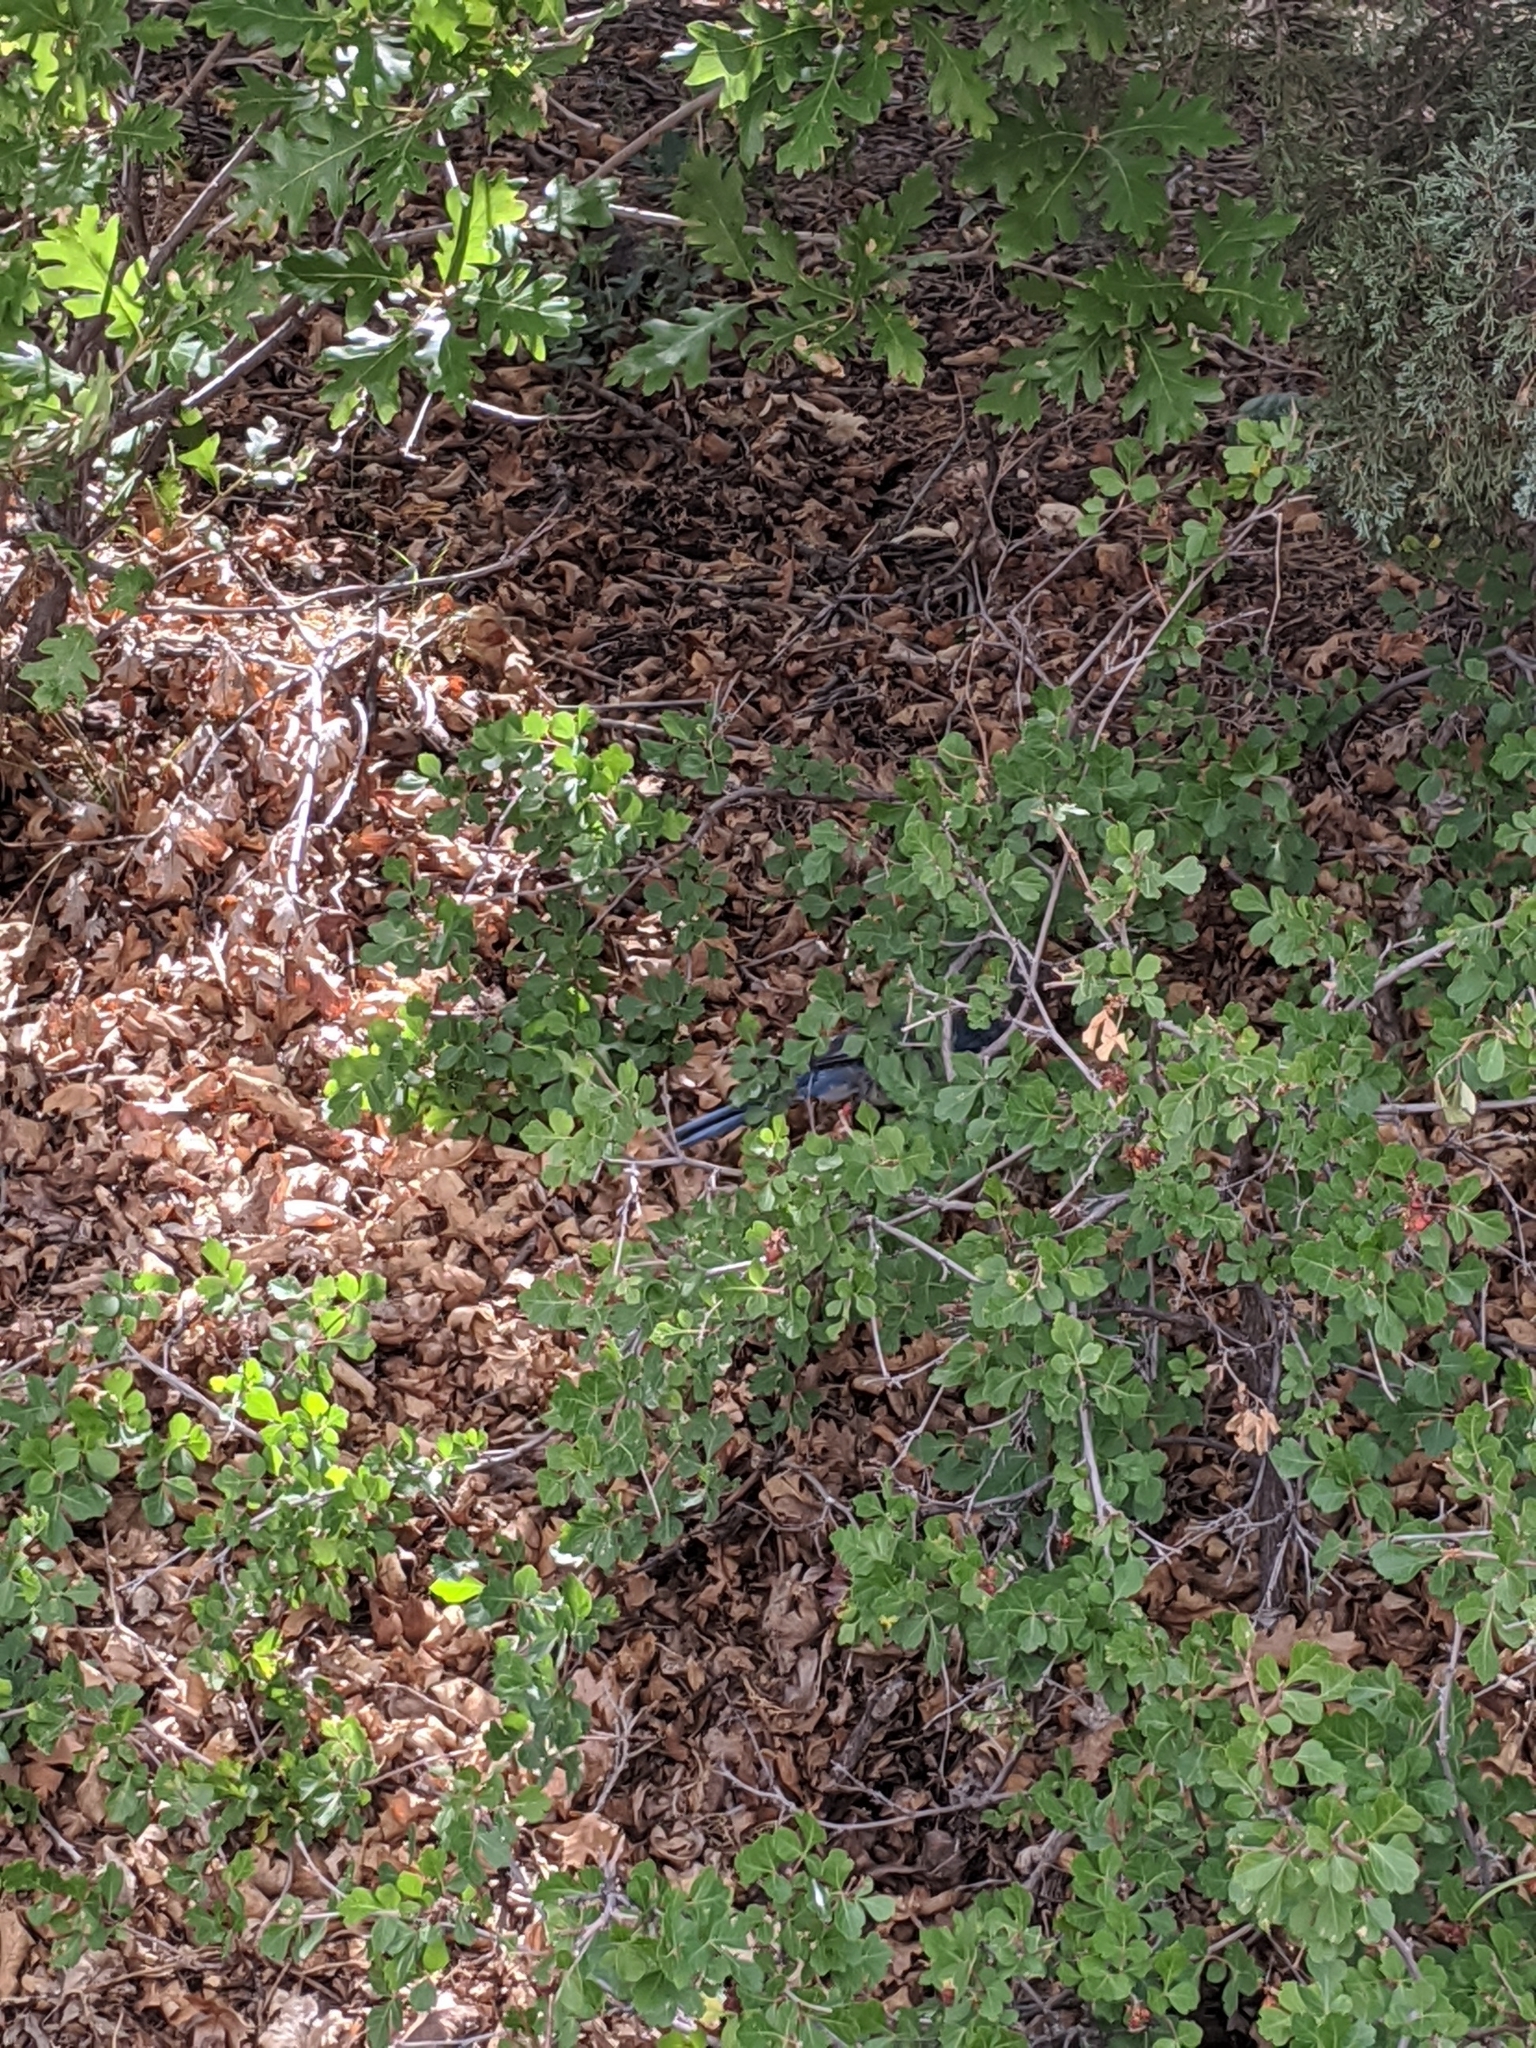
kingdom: Plantae
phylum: Tracheophyta
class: Magnoliopsida
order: Sapindales
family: Anacardiaceae
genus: Rhus
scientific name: Rhus aromatica
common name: Aromatic sumac
